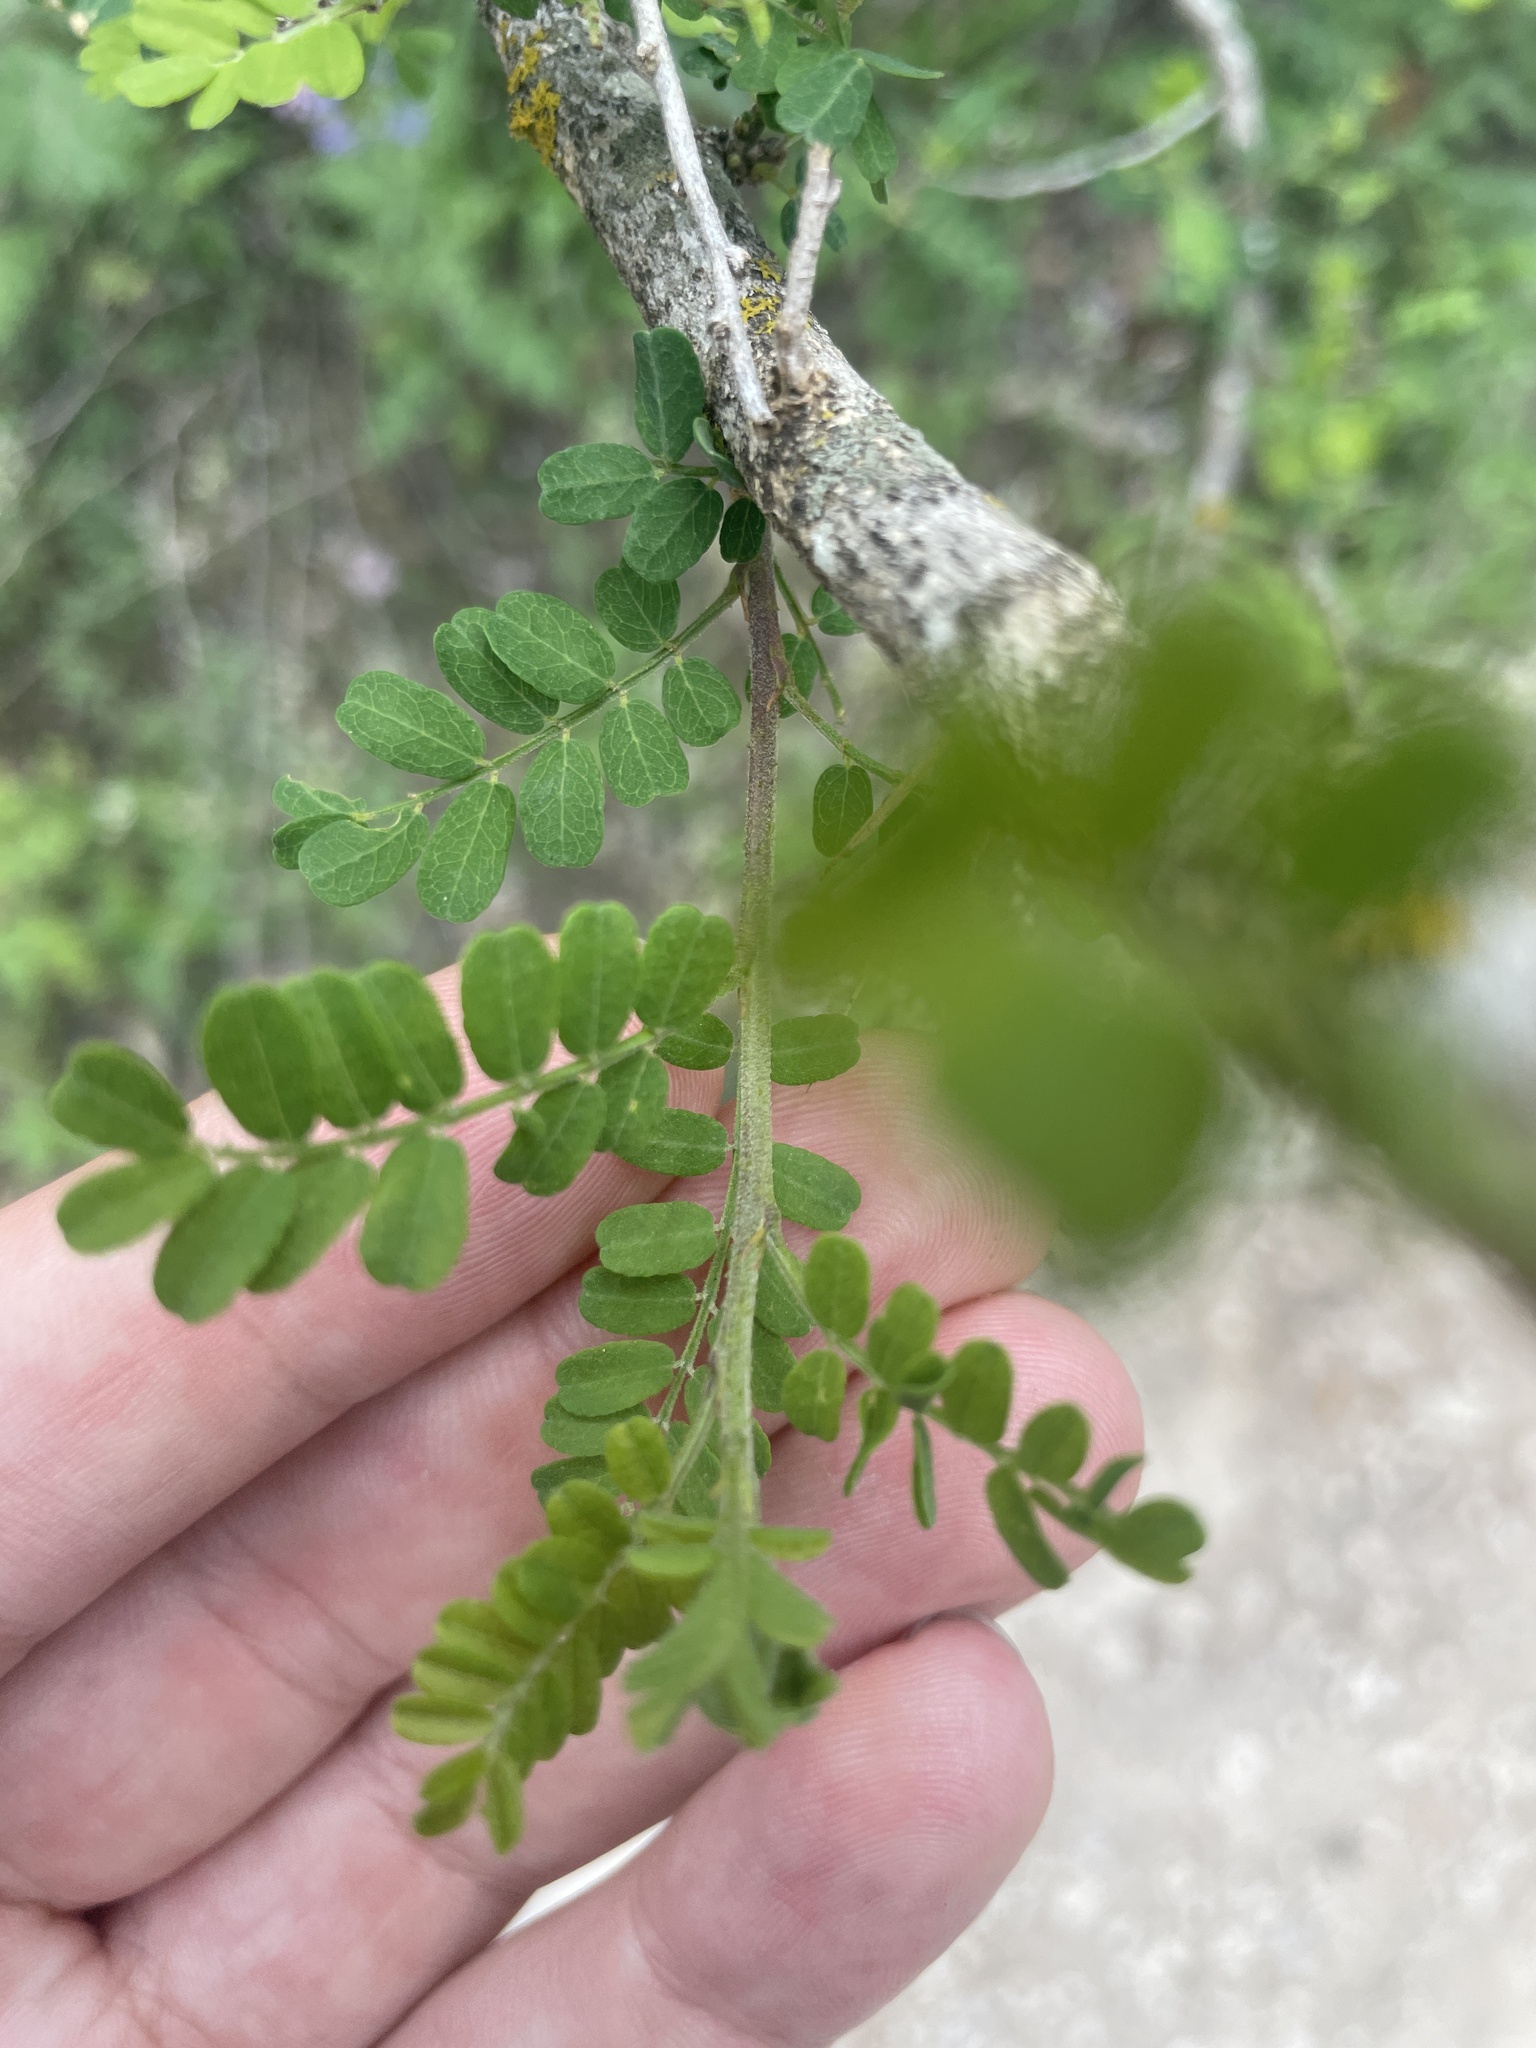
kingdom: Plantae
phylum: Tracheophyta
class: Magnoliopsida
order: Fabales
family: Fabaceae
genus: Eysenhardtia
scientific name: Eysenhardtia texana
